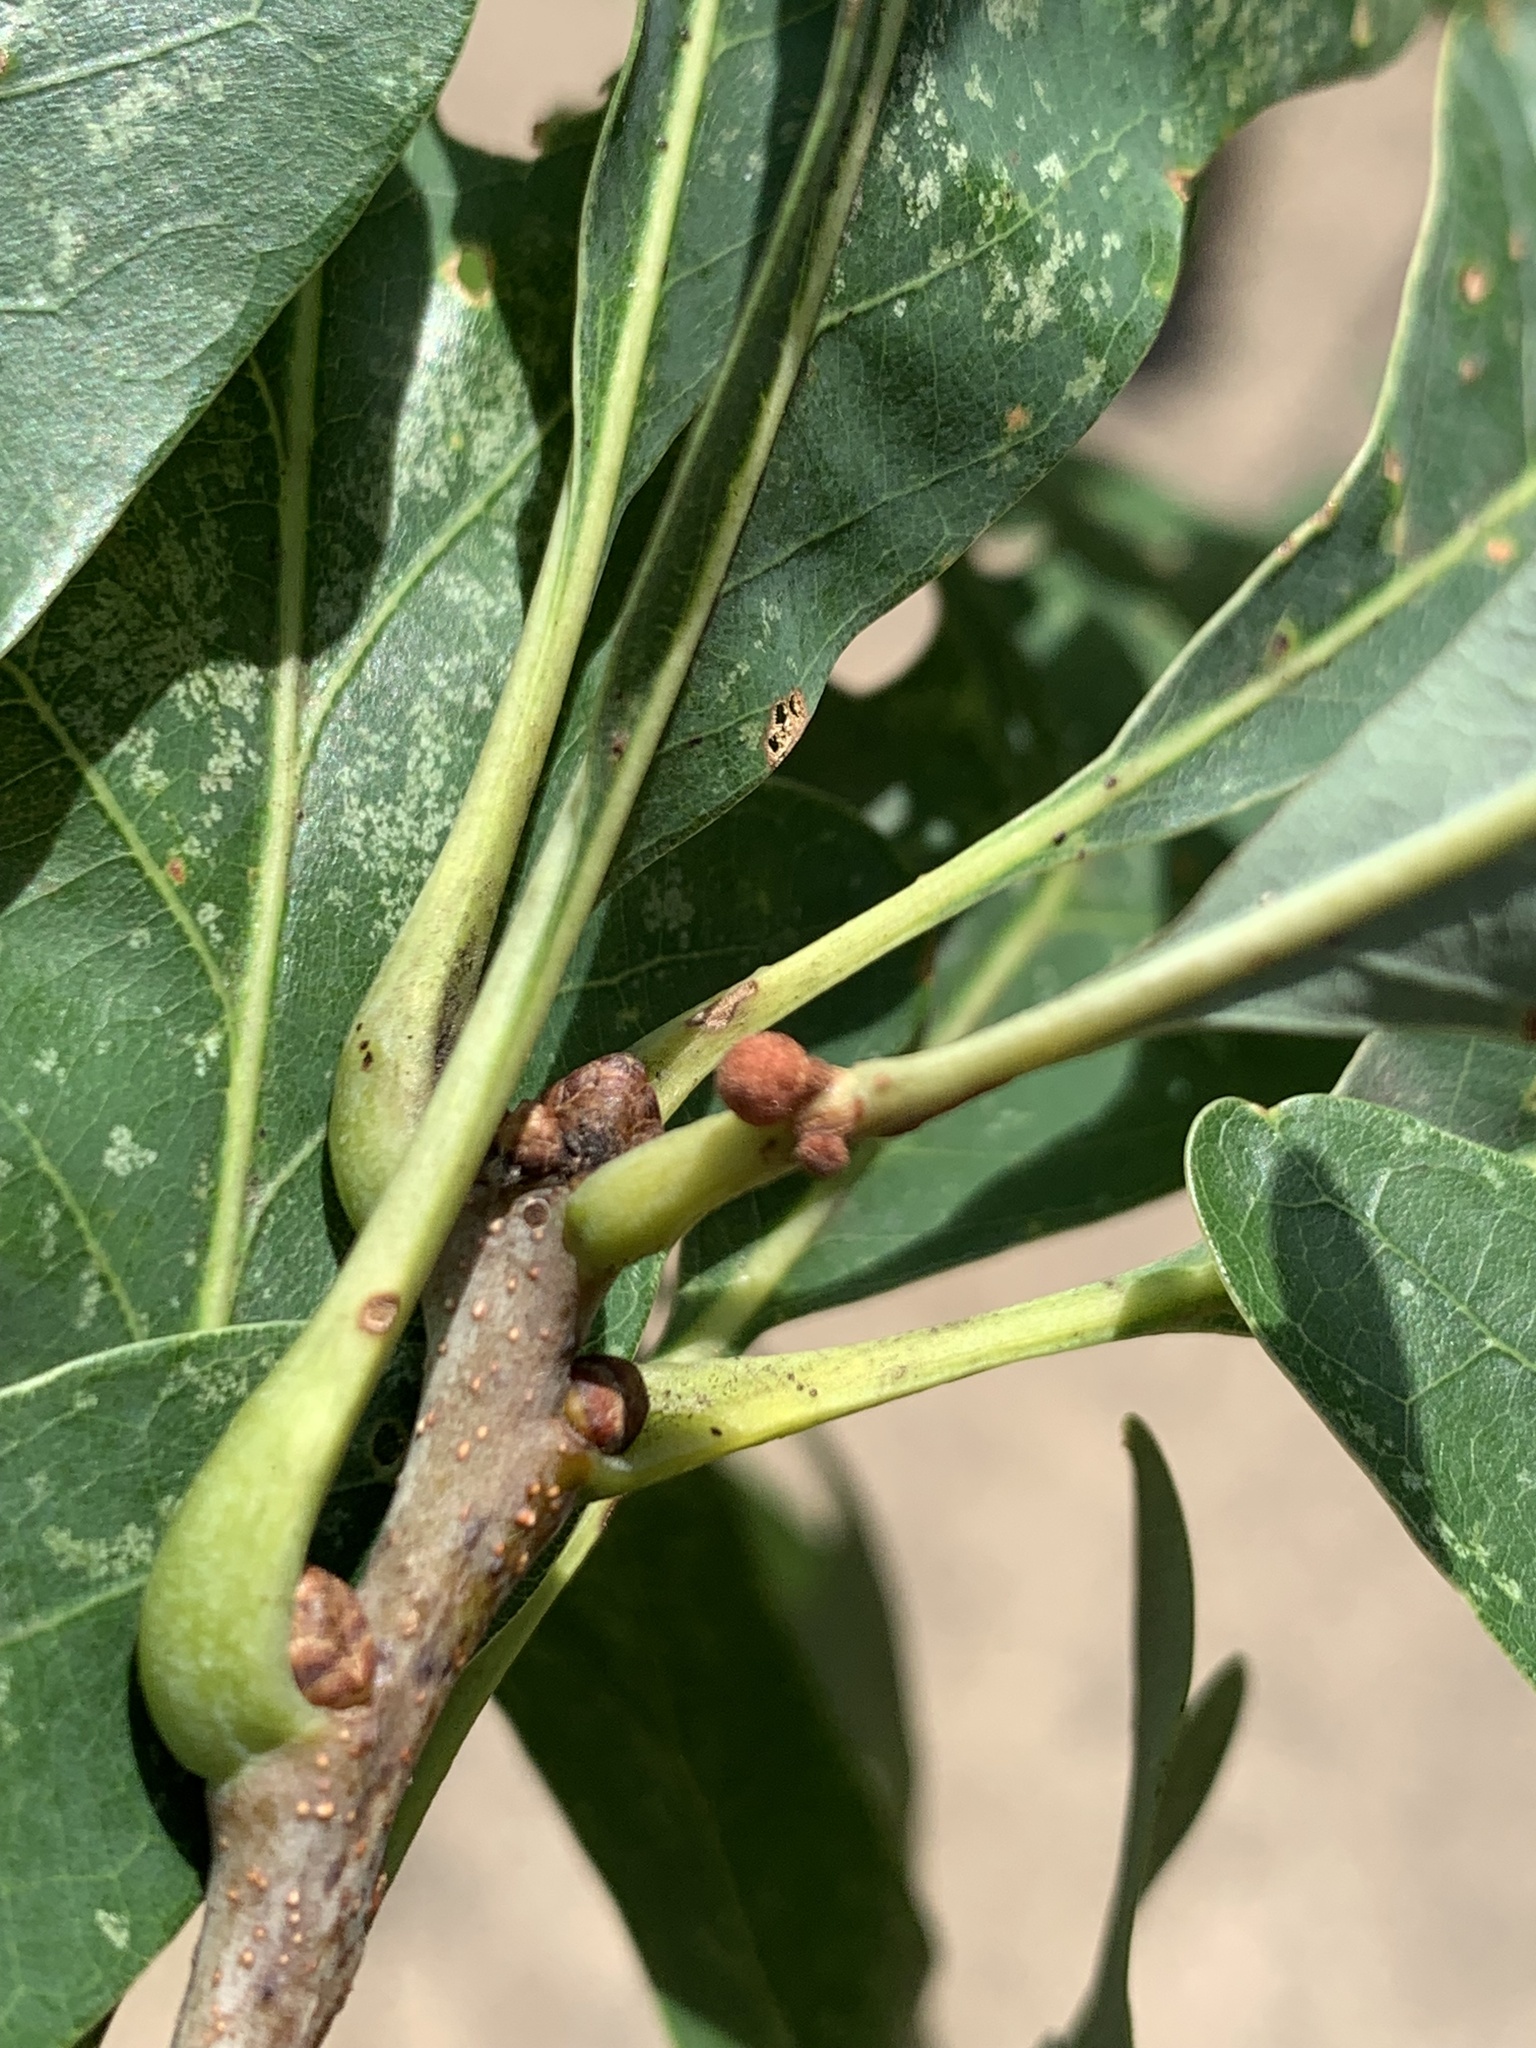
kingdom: Animalia
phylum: Arthropoda
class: Insecta
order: Hymenoptera
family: Cynipidae
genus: Andricus
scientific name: Andricus
